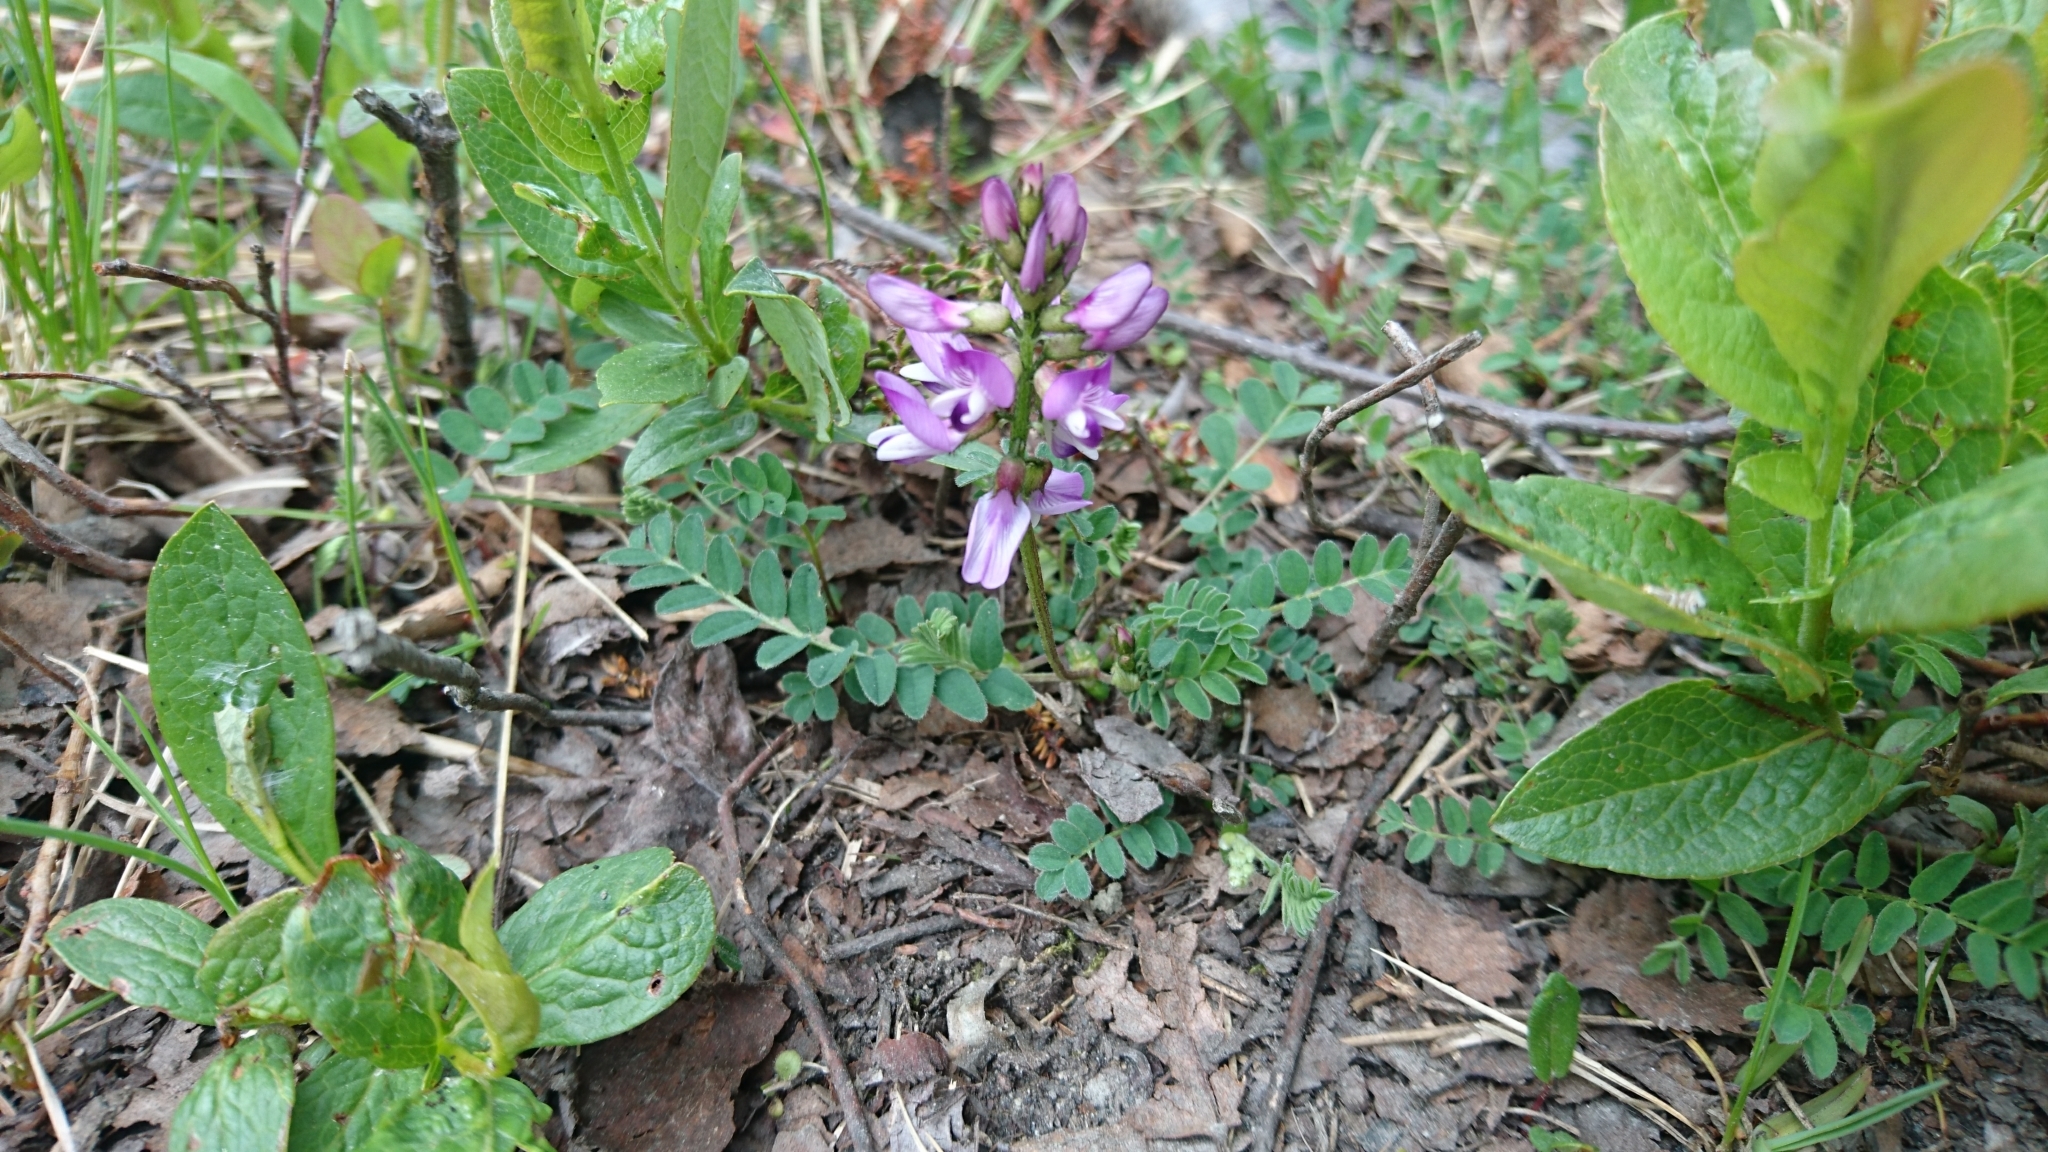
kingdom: Plantae
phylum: Tracheophyta
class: Magnoliopsida
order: Fabales
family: Fabaceae
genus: Astragalus
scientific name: Astragalus alpinus
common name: Alpine milk-vetch
